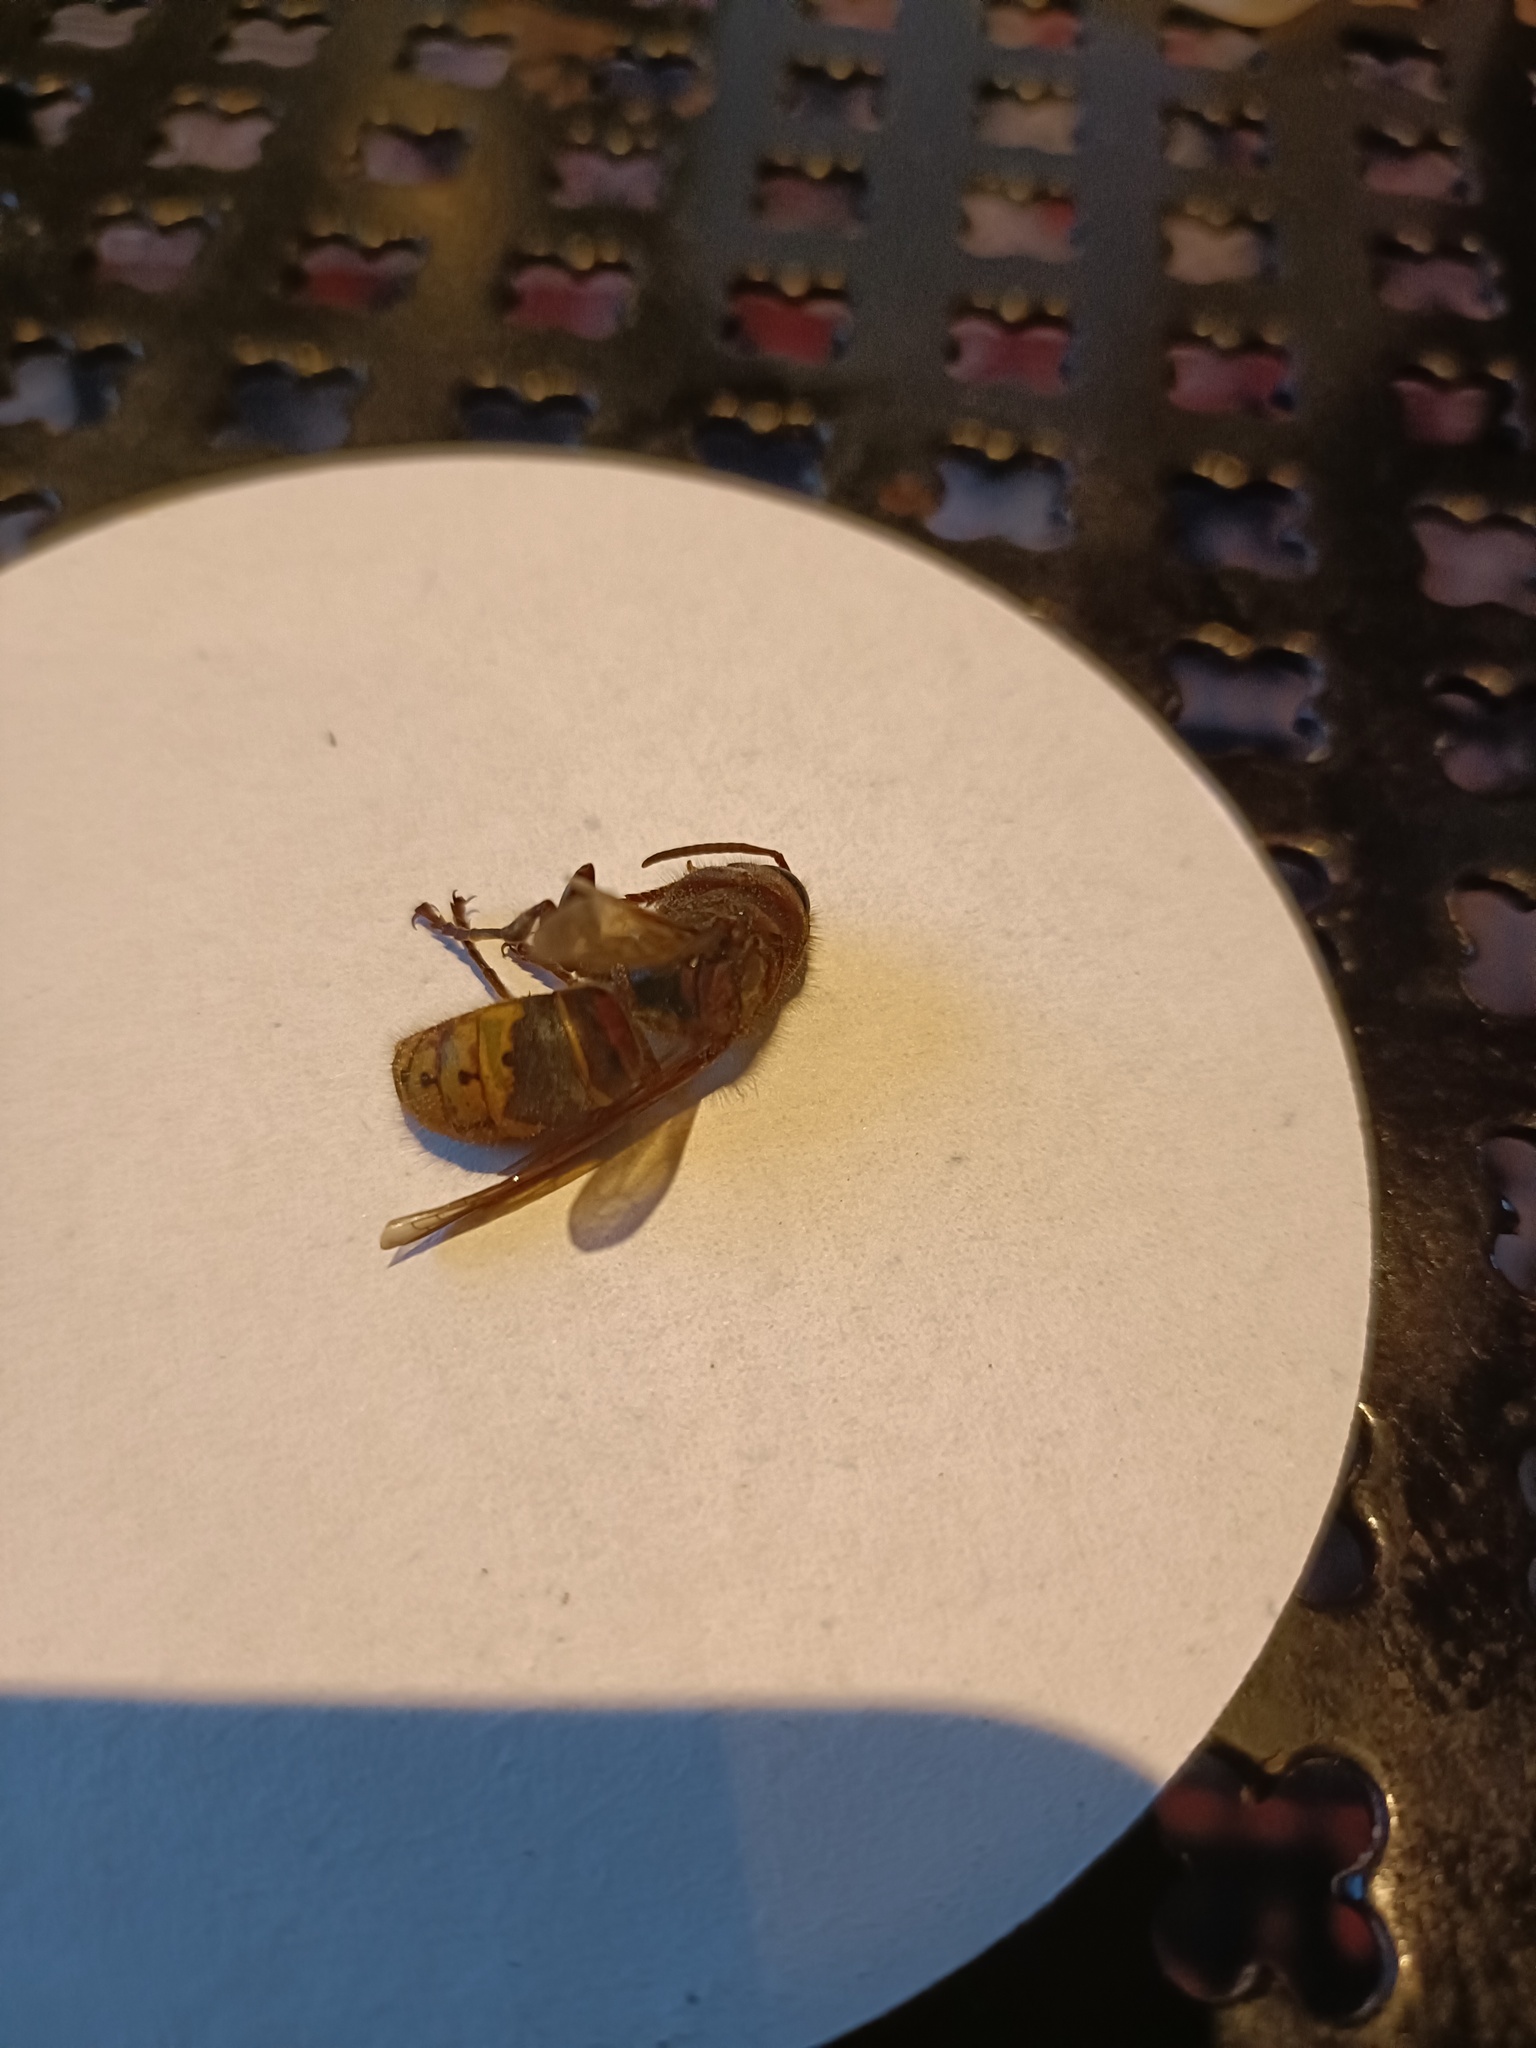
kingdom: Animalia
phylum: Arthropoda
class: Insecta
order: Hymenoptera
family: Vespidae
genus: Vespa
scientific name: Vespa crabro
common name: Hornet
